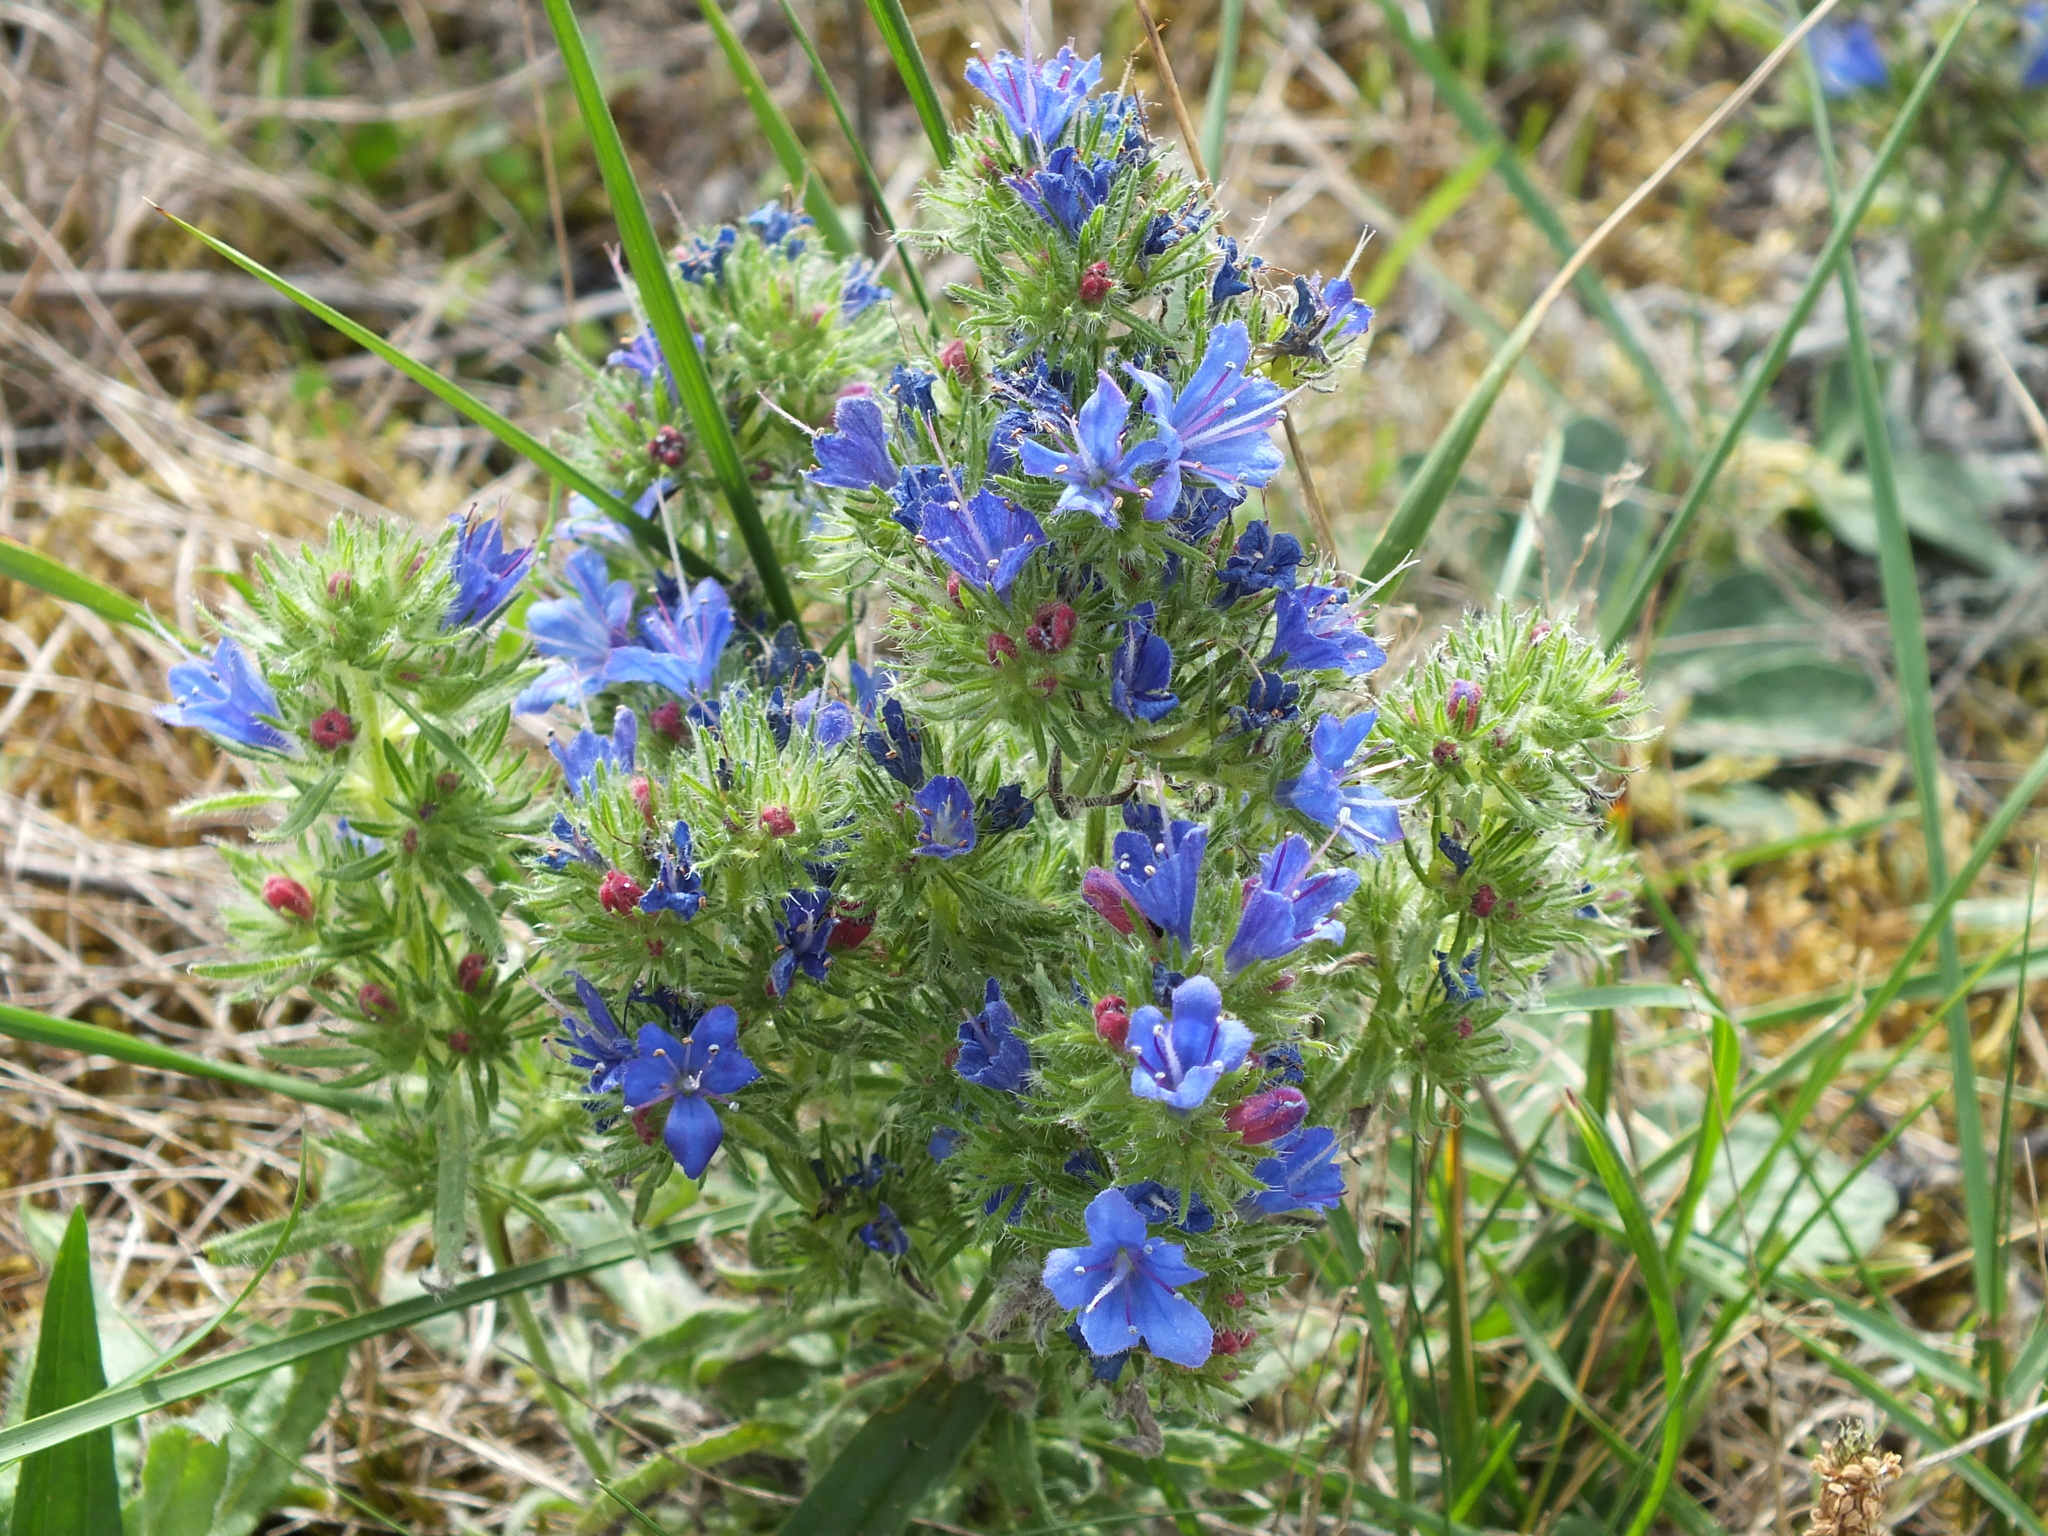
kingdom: Plantae
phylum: Tracheophyta
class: Magnoliopsida
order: Boraginales
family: Boraginaceae
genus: Echium
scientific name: Echium vulgare
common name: Common viper's bugloss
